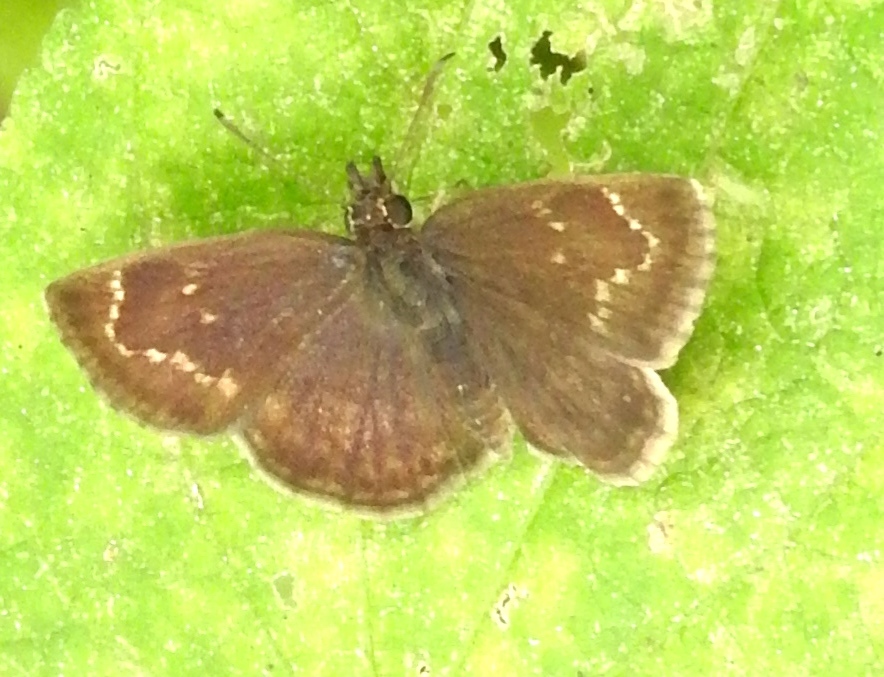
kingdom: Animalia
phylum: Arthropoda
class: Insecta
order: Lepidoptera
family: Hesperiidae
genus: Pholisora
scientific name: Pholisora
